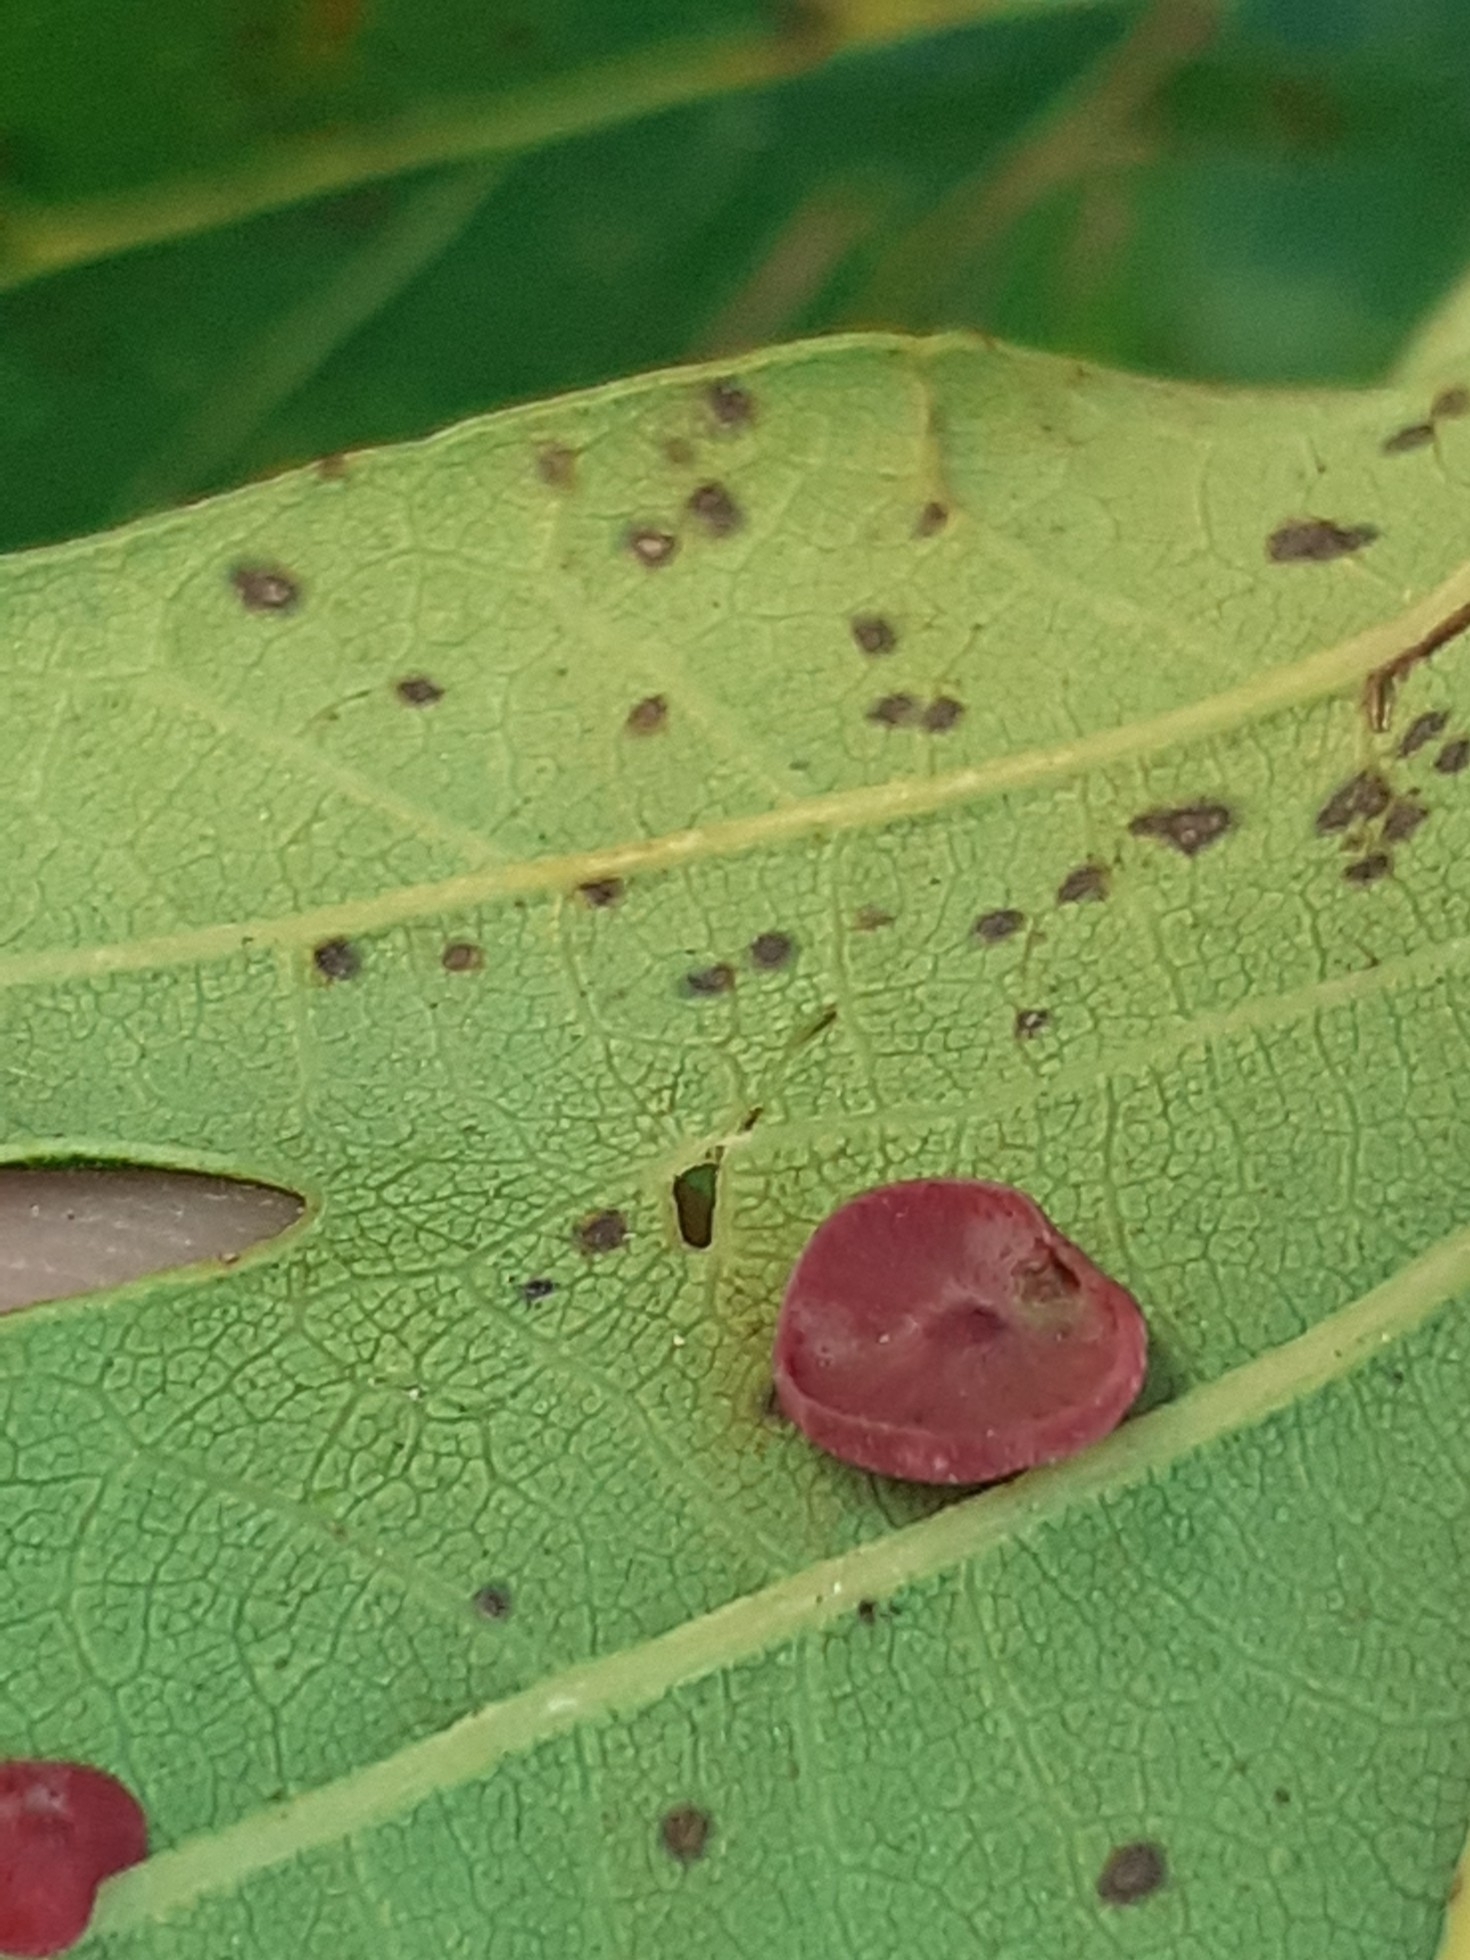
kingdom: Animalia
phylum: Arthropoda
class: Insecta
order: Hymenoptera
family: Cynipidae
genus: Neuroterus
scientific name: Neuroterus albipes
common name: Smooth spangle gall
